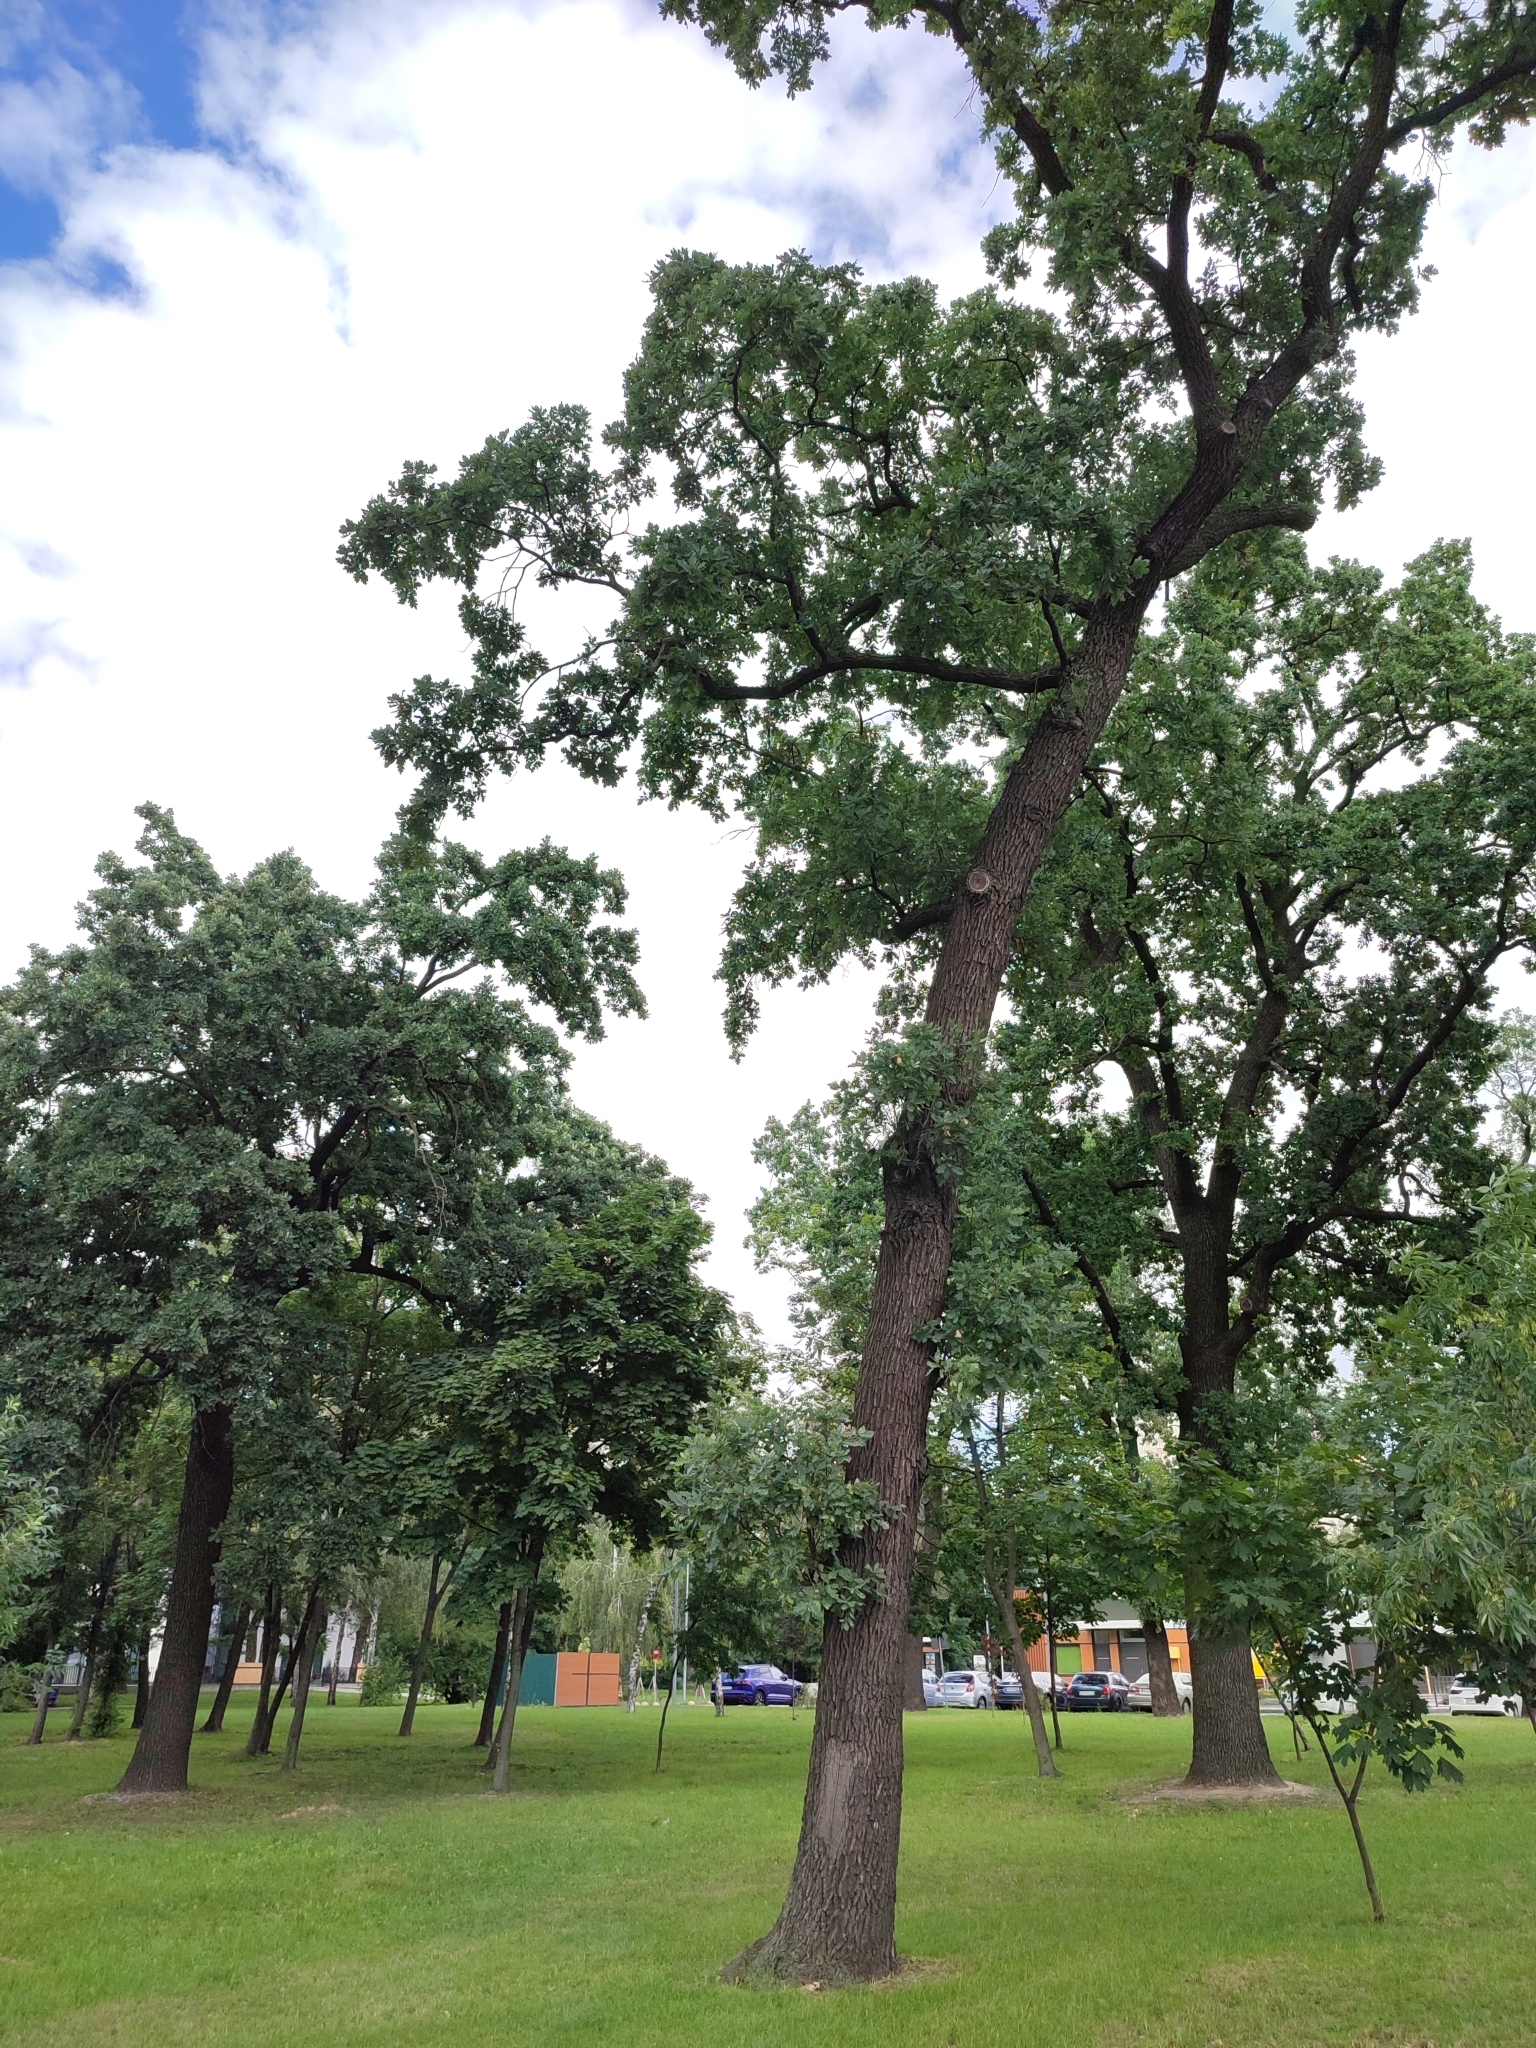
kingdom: Plantae
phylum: Tracheophyta
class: Magnoliopsida
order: Fagales
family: Fagaceae
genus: Quercus
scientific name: Quercus robur
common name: Pedunculate oak
